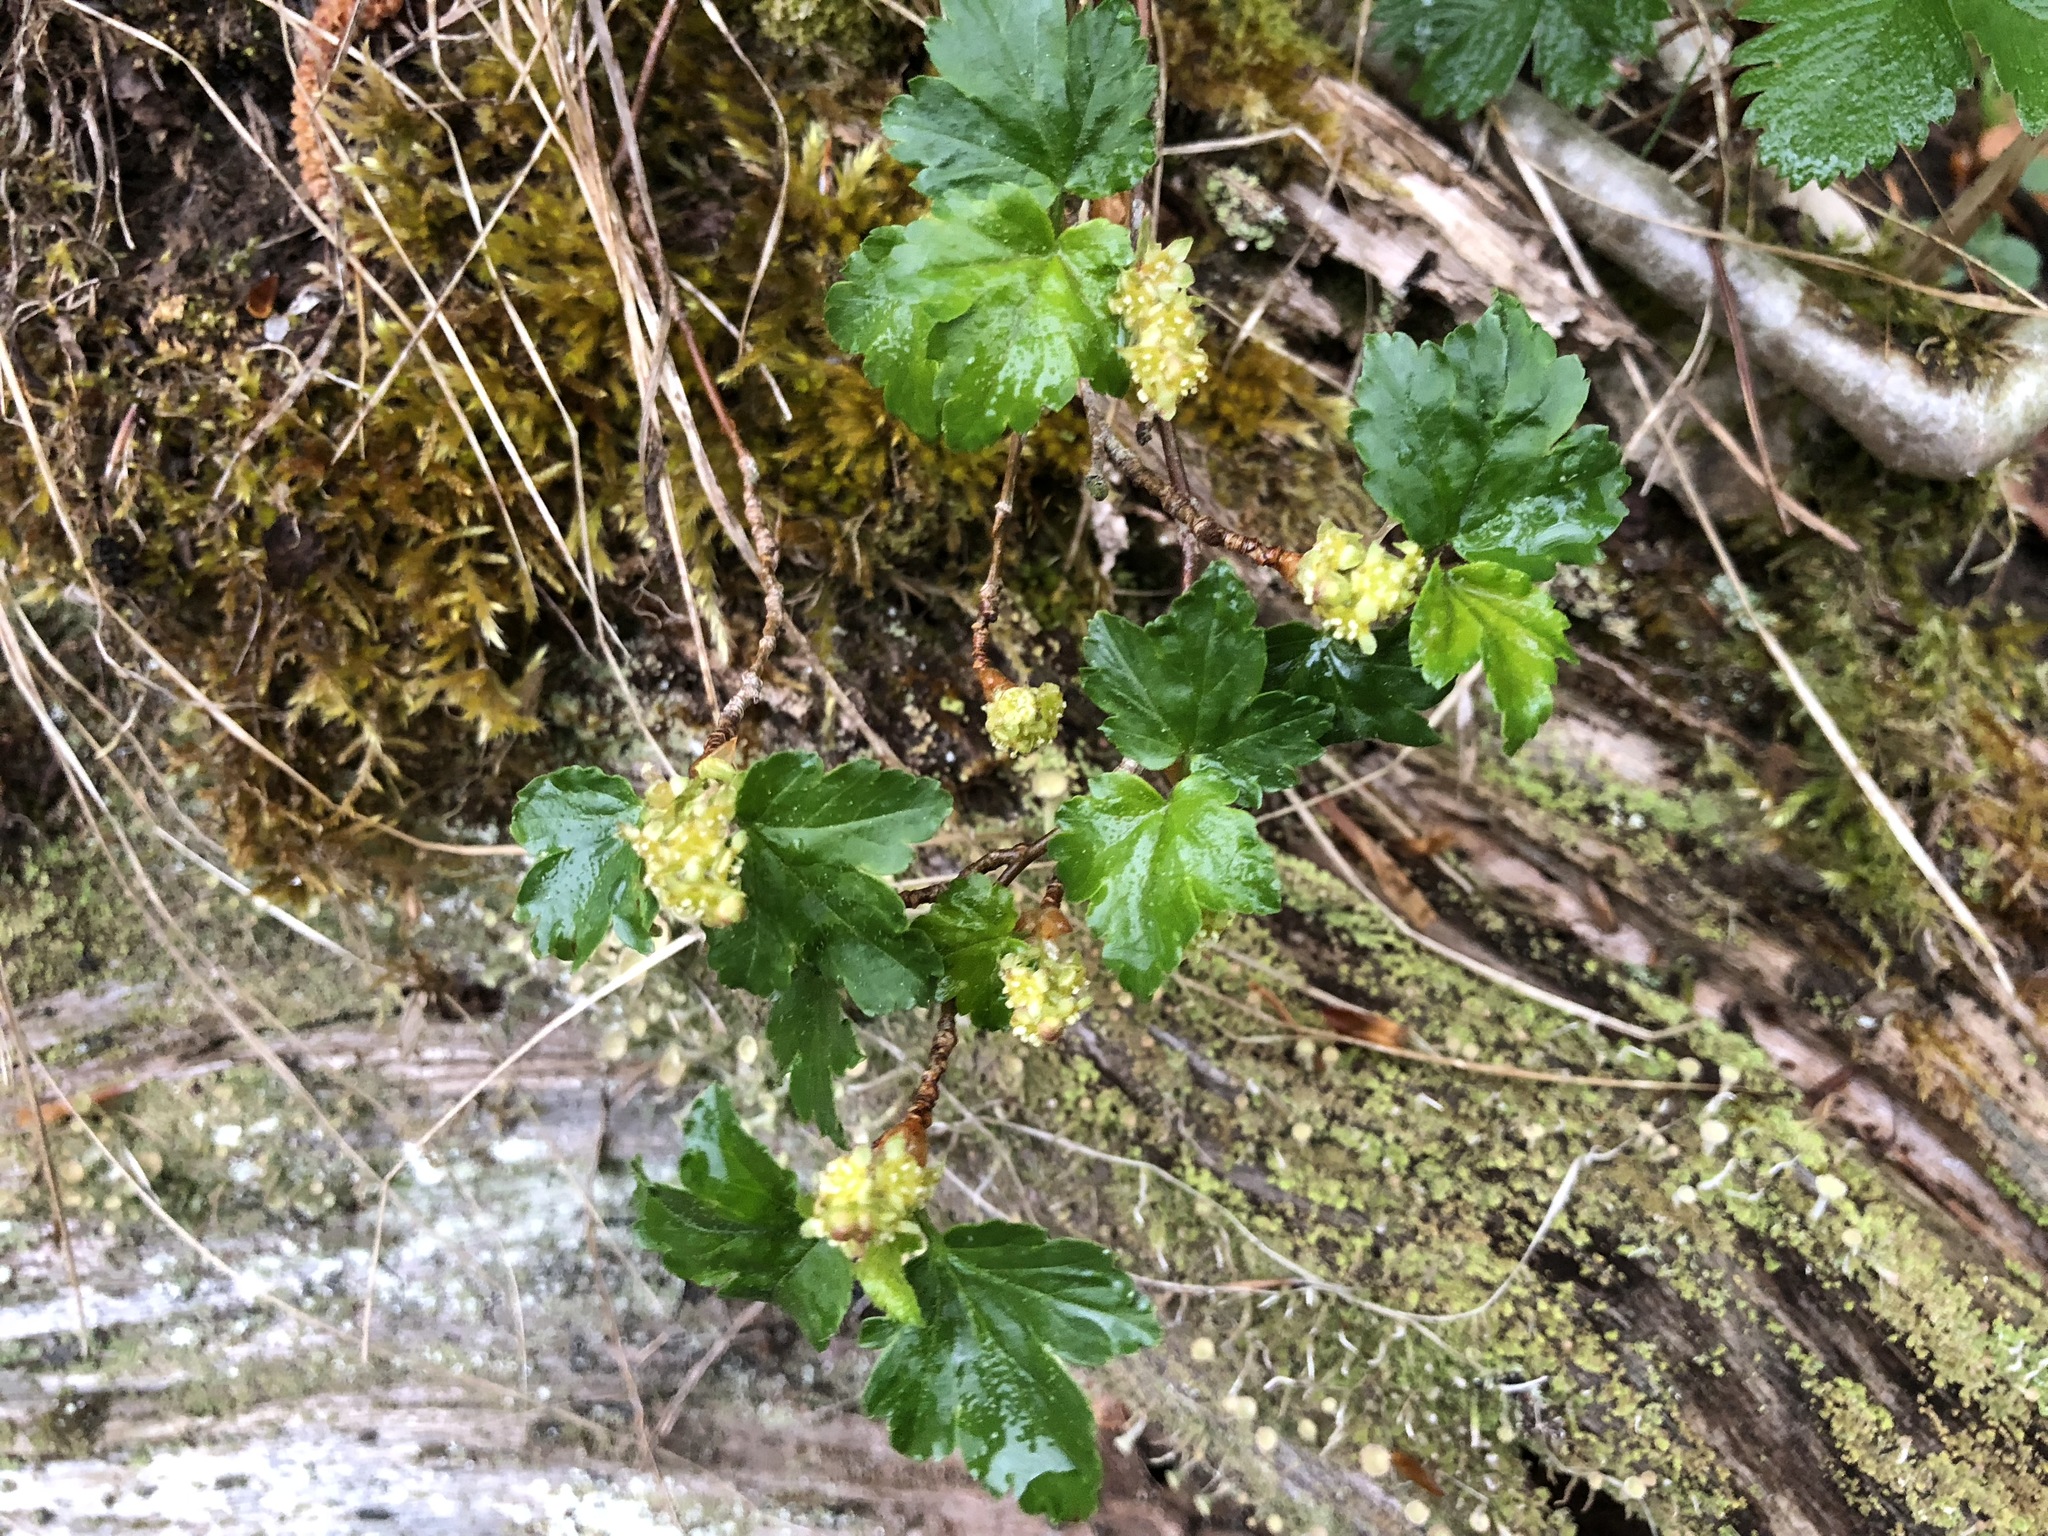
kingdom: Plantae
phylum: Tracheophyta
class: Magnoliopsida
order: Saxifragales
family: Grossulariaceae
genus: Ribes
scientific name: Ribes alpinum
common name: Alpine currant
